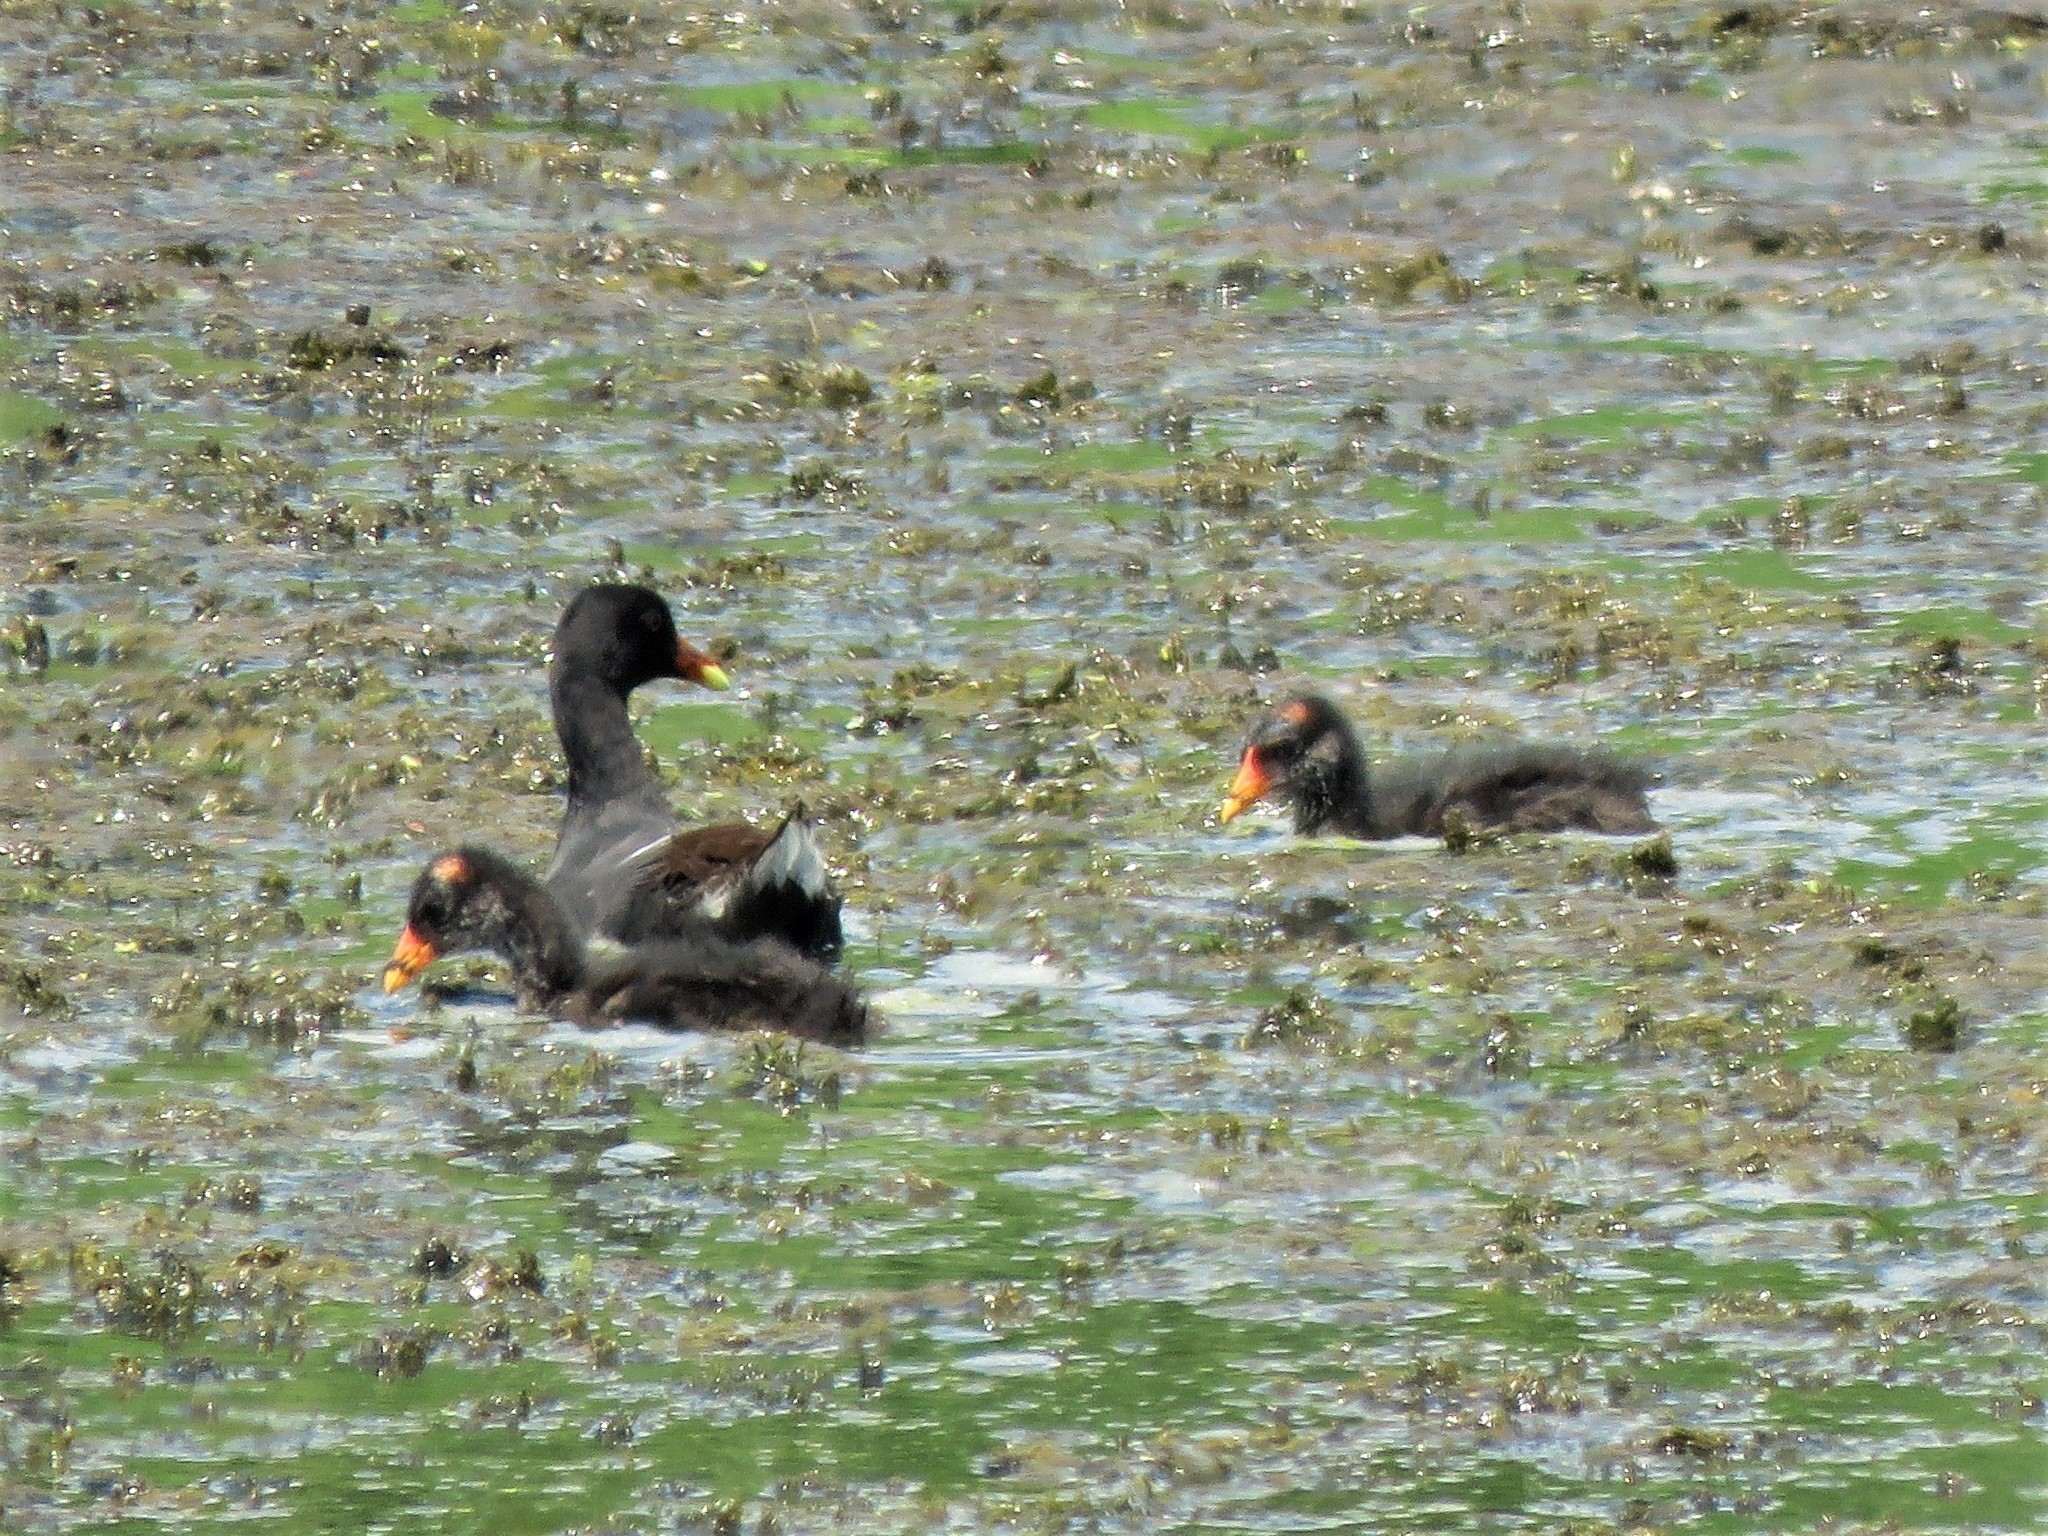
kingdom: Animalia
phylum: Chordata
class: Aves
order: Gruiformes
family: Rallidae
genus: Gallinula
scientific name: Gallinula chloropus
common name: Common moorhen
